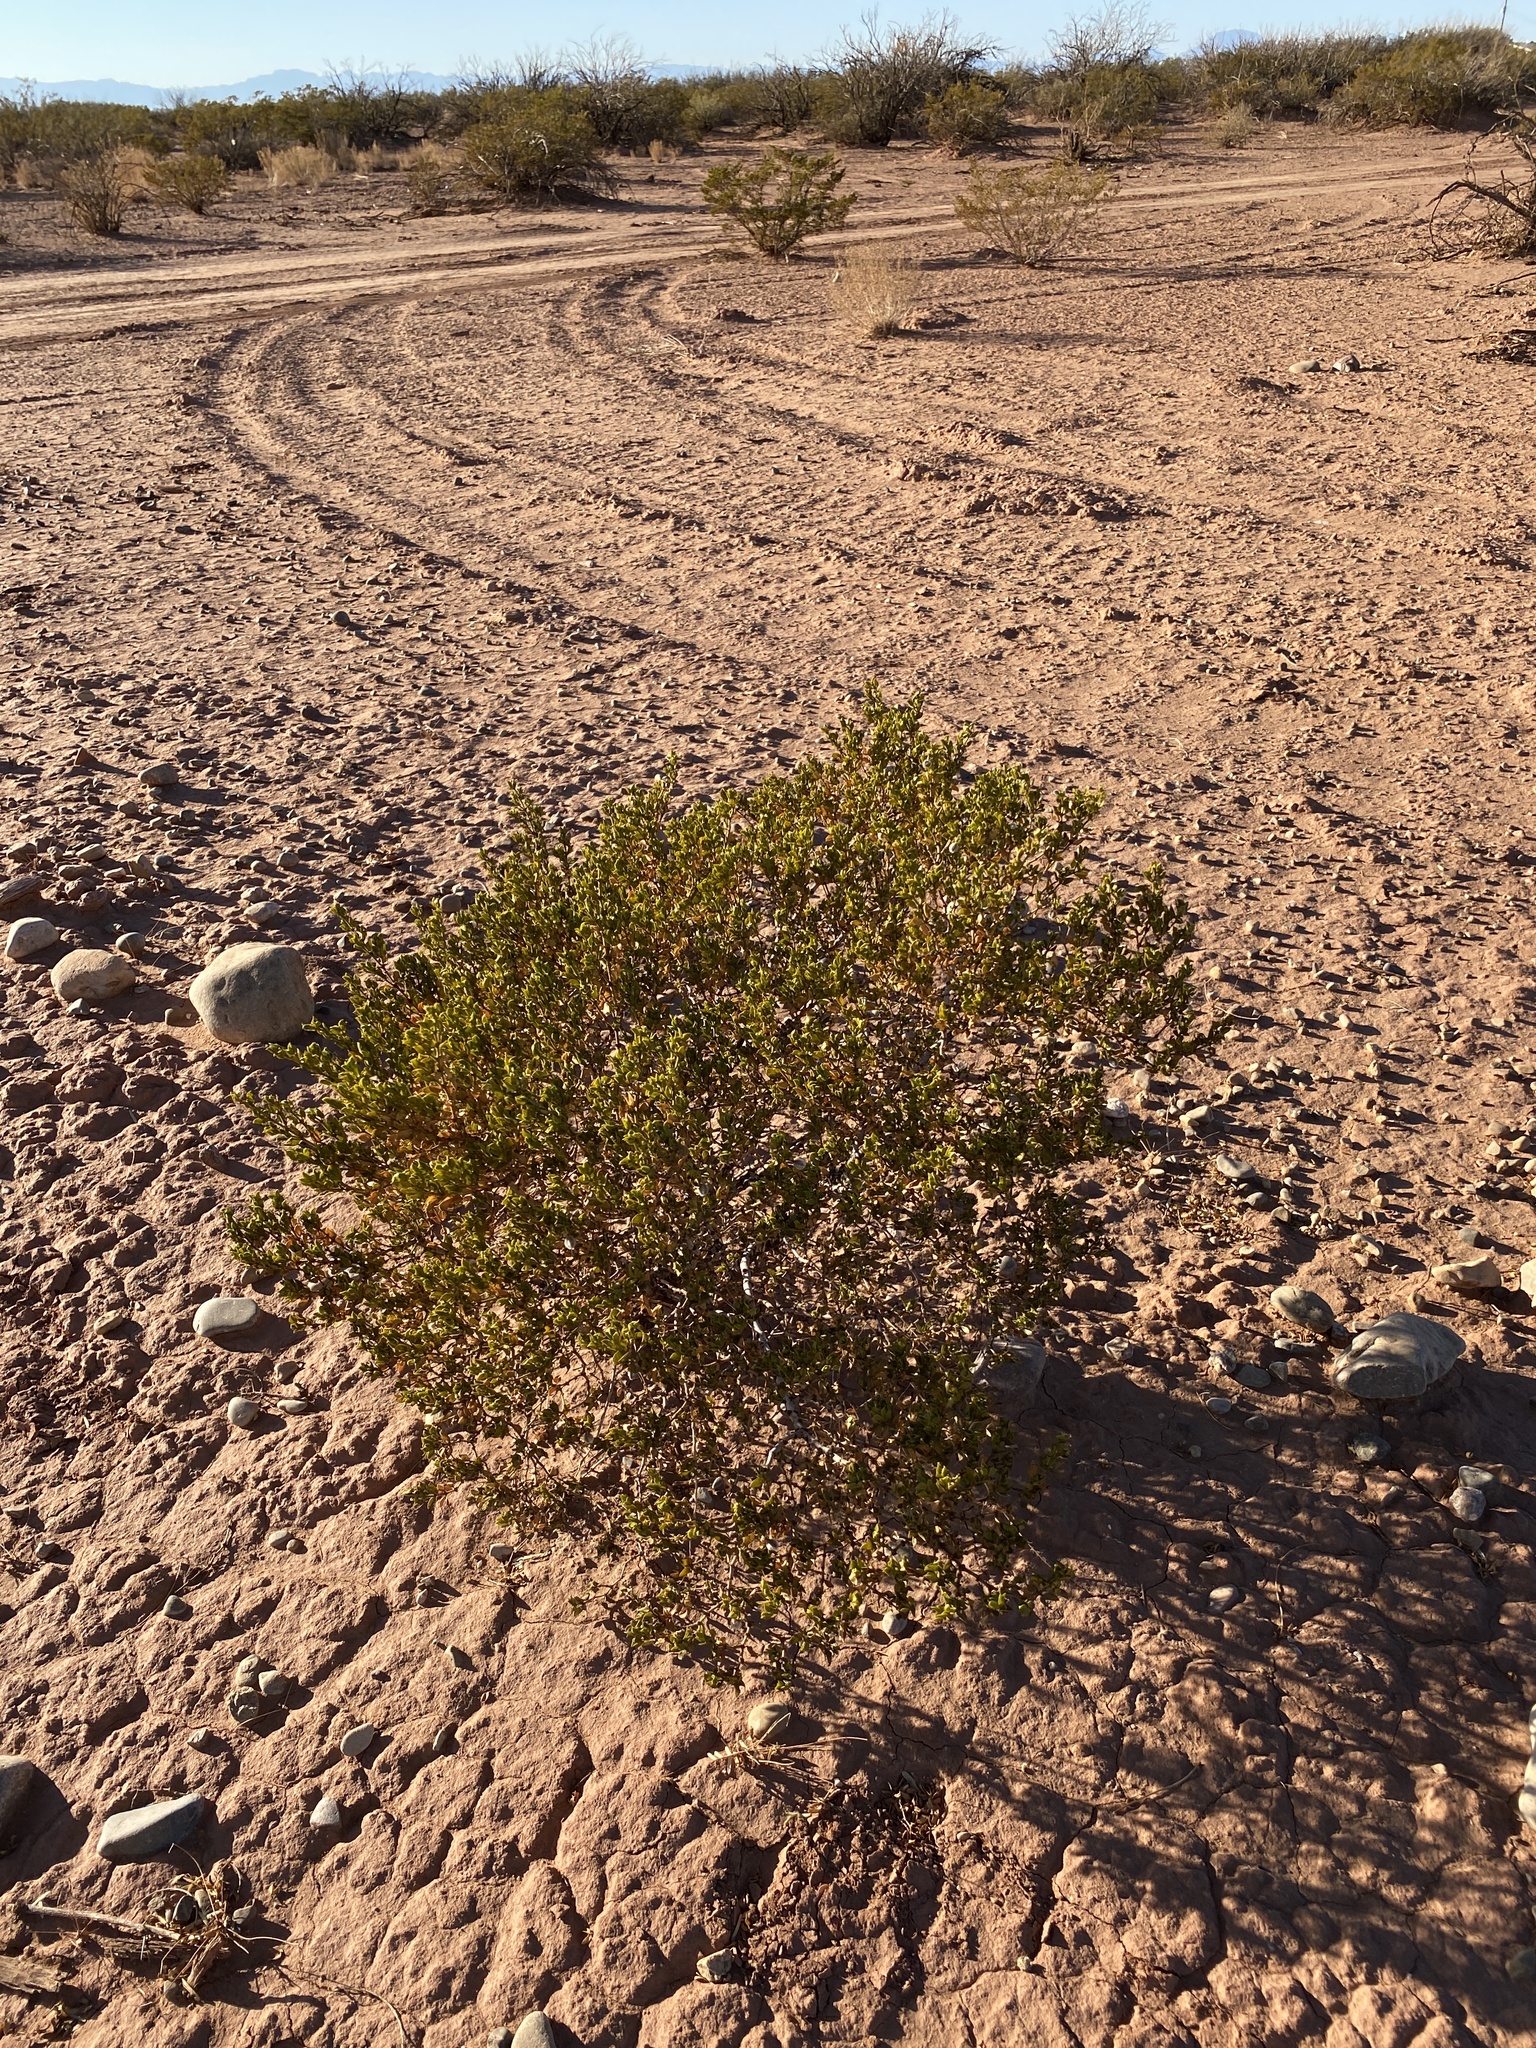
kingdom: Plantae
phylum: Tracheophyta
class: Magnoliopsida
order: Zygophyllales
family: Zygophyllaceae
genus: Larrea
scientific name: Larrea tridentata
